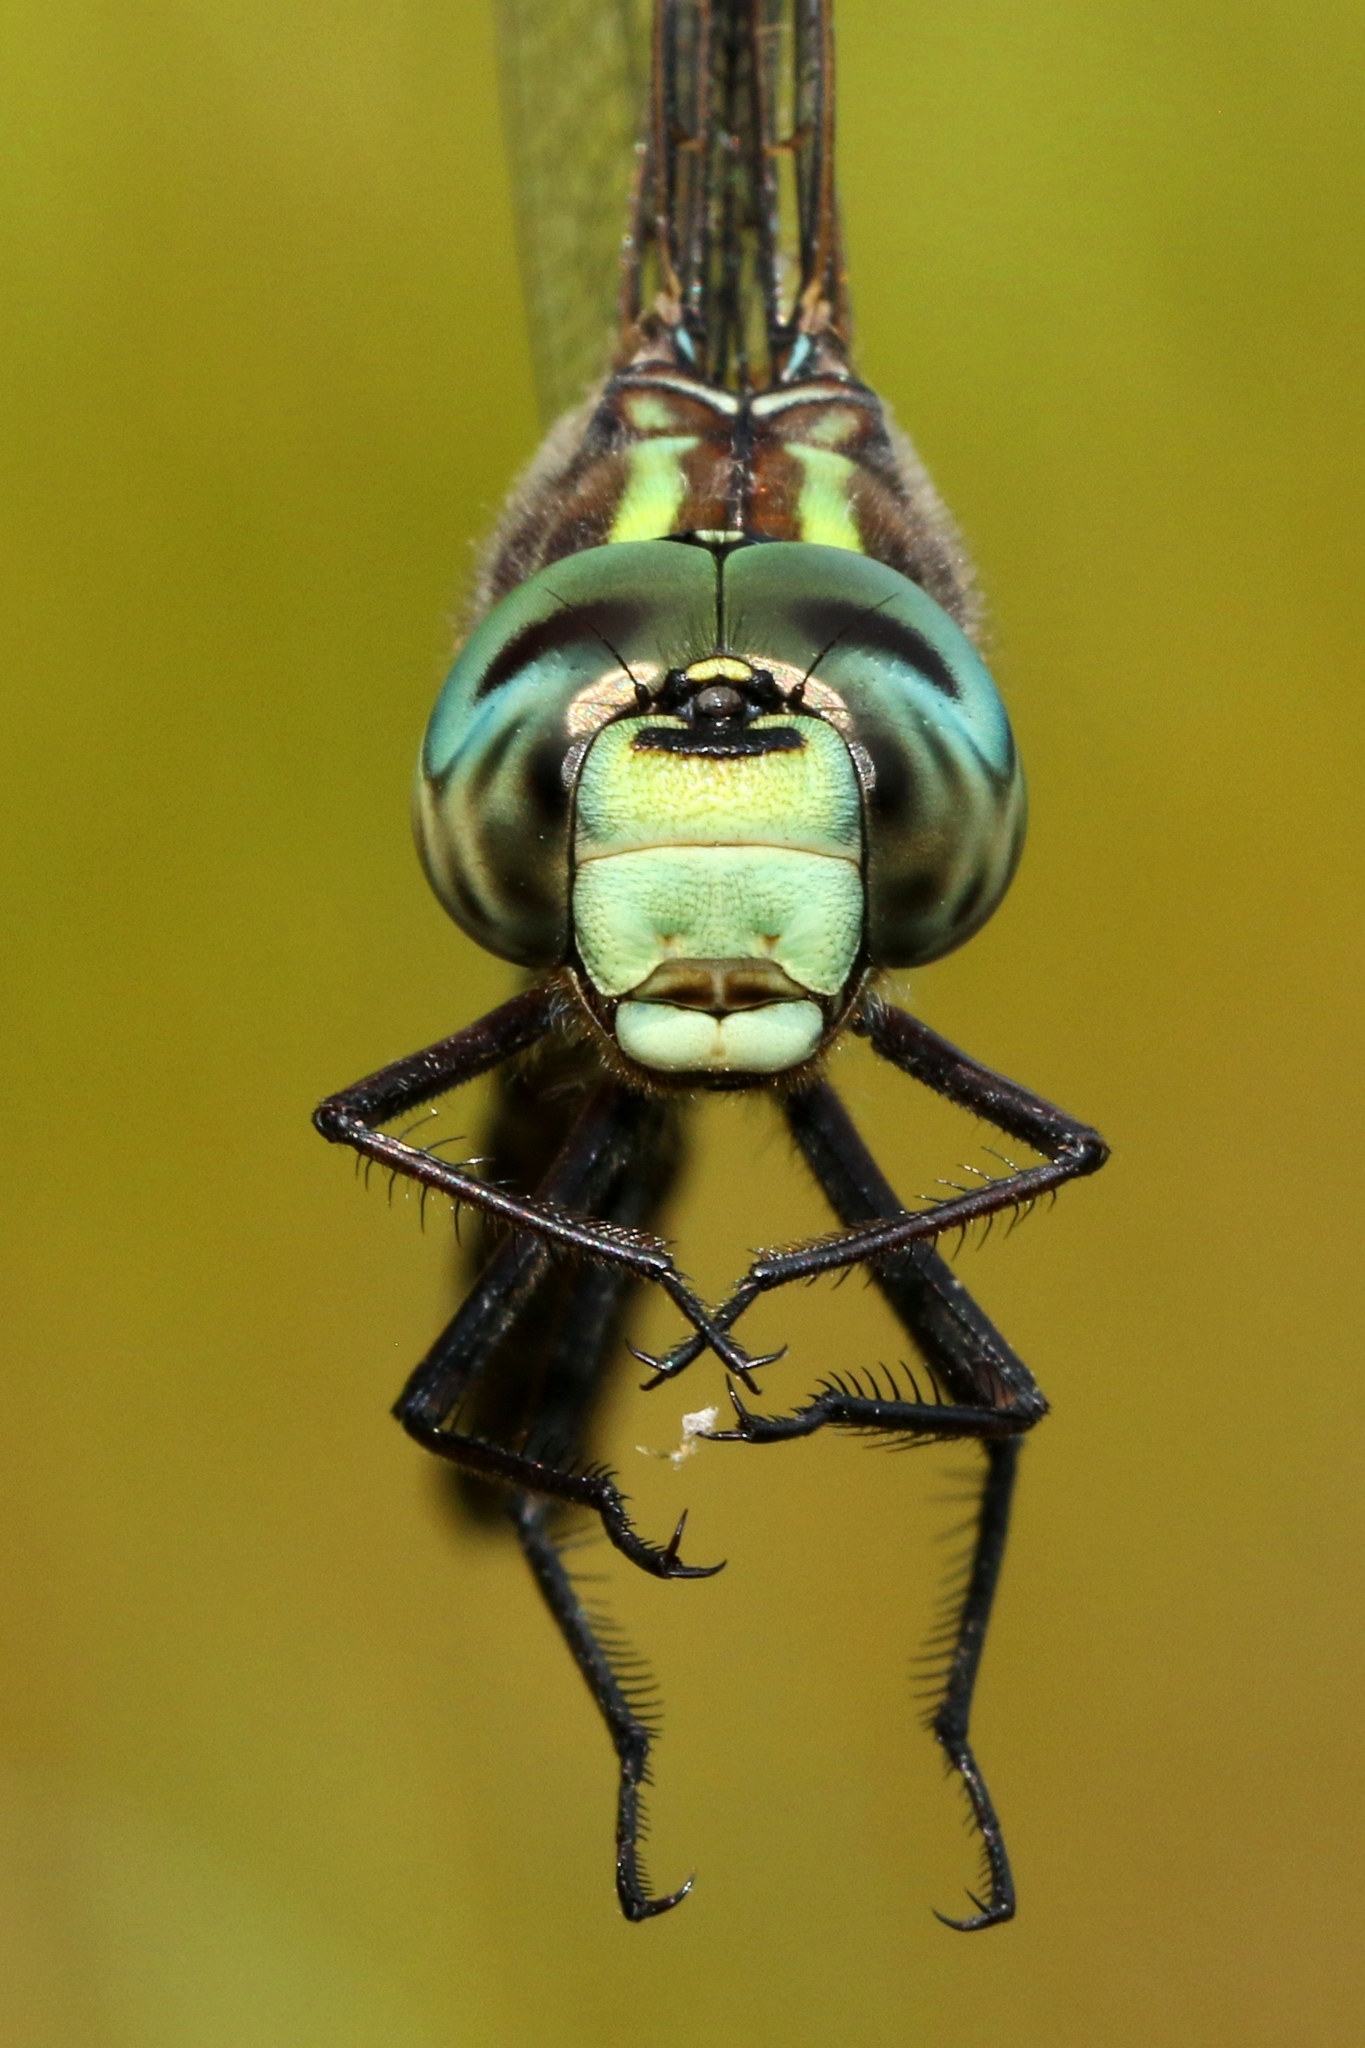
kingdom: Animalia
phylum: Arthropoda
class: Insecta
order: Odonata
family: Aeshnidae
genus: Aeshna
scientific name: Aeshna canadensis
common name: Canada darner
